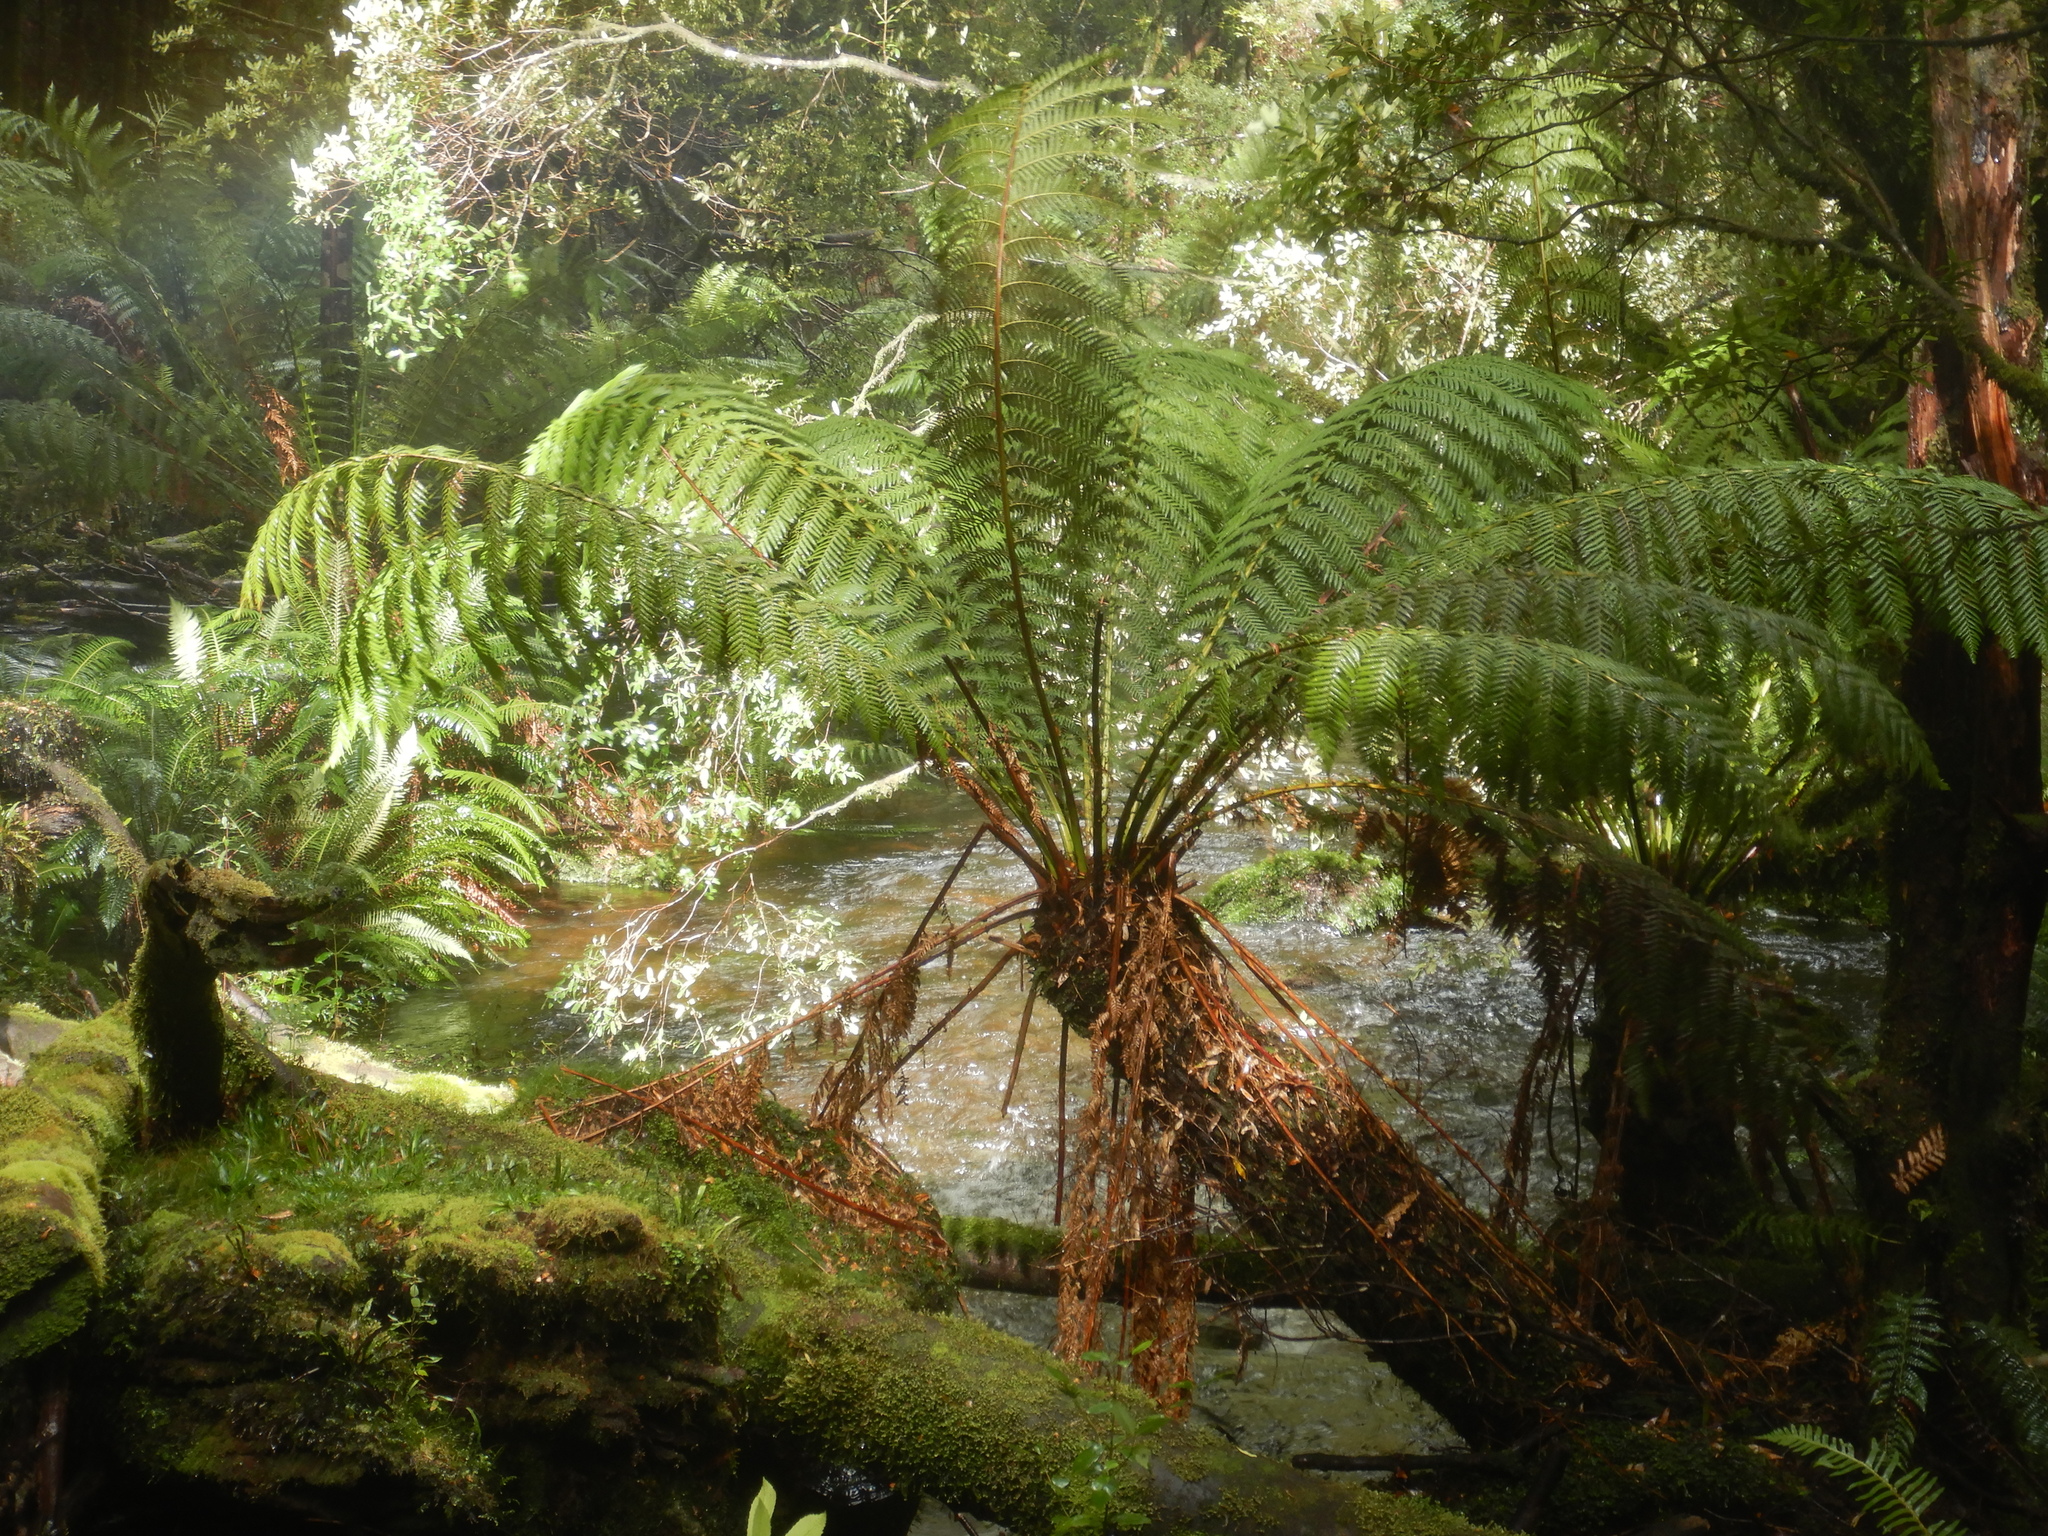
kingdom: Plantae
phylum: Tracheophyta
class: Polypodiopsida
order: Cyatheales
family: Dicksoniaceae
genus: Dicksonia
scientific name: Dicksonia antarctica
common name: Australian treefern
